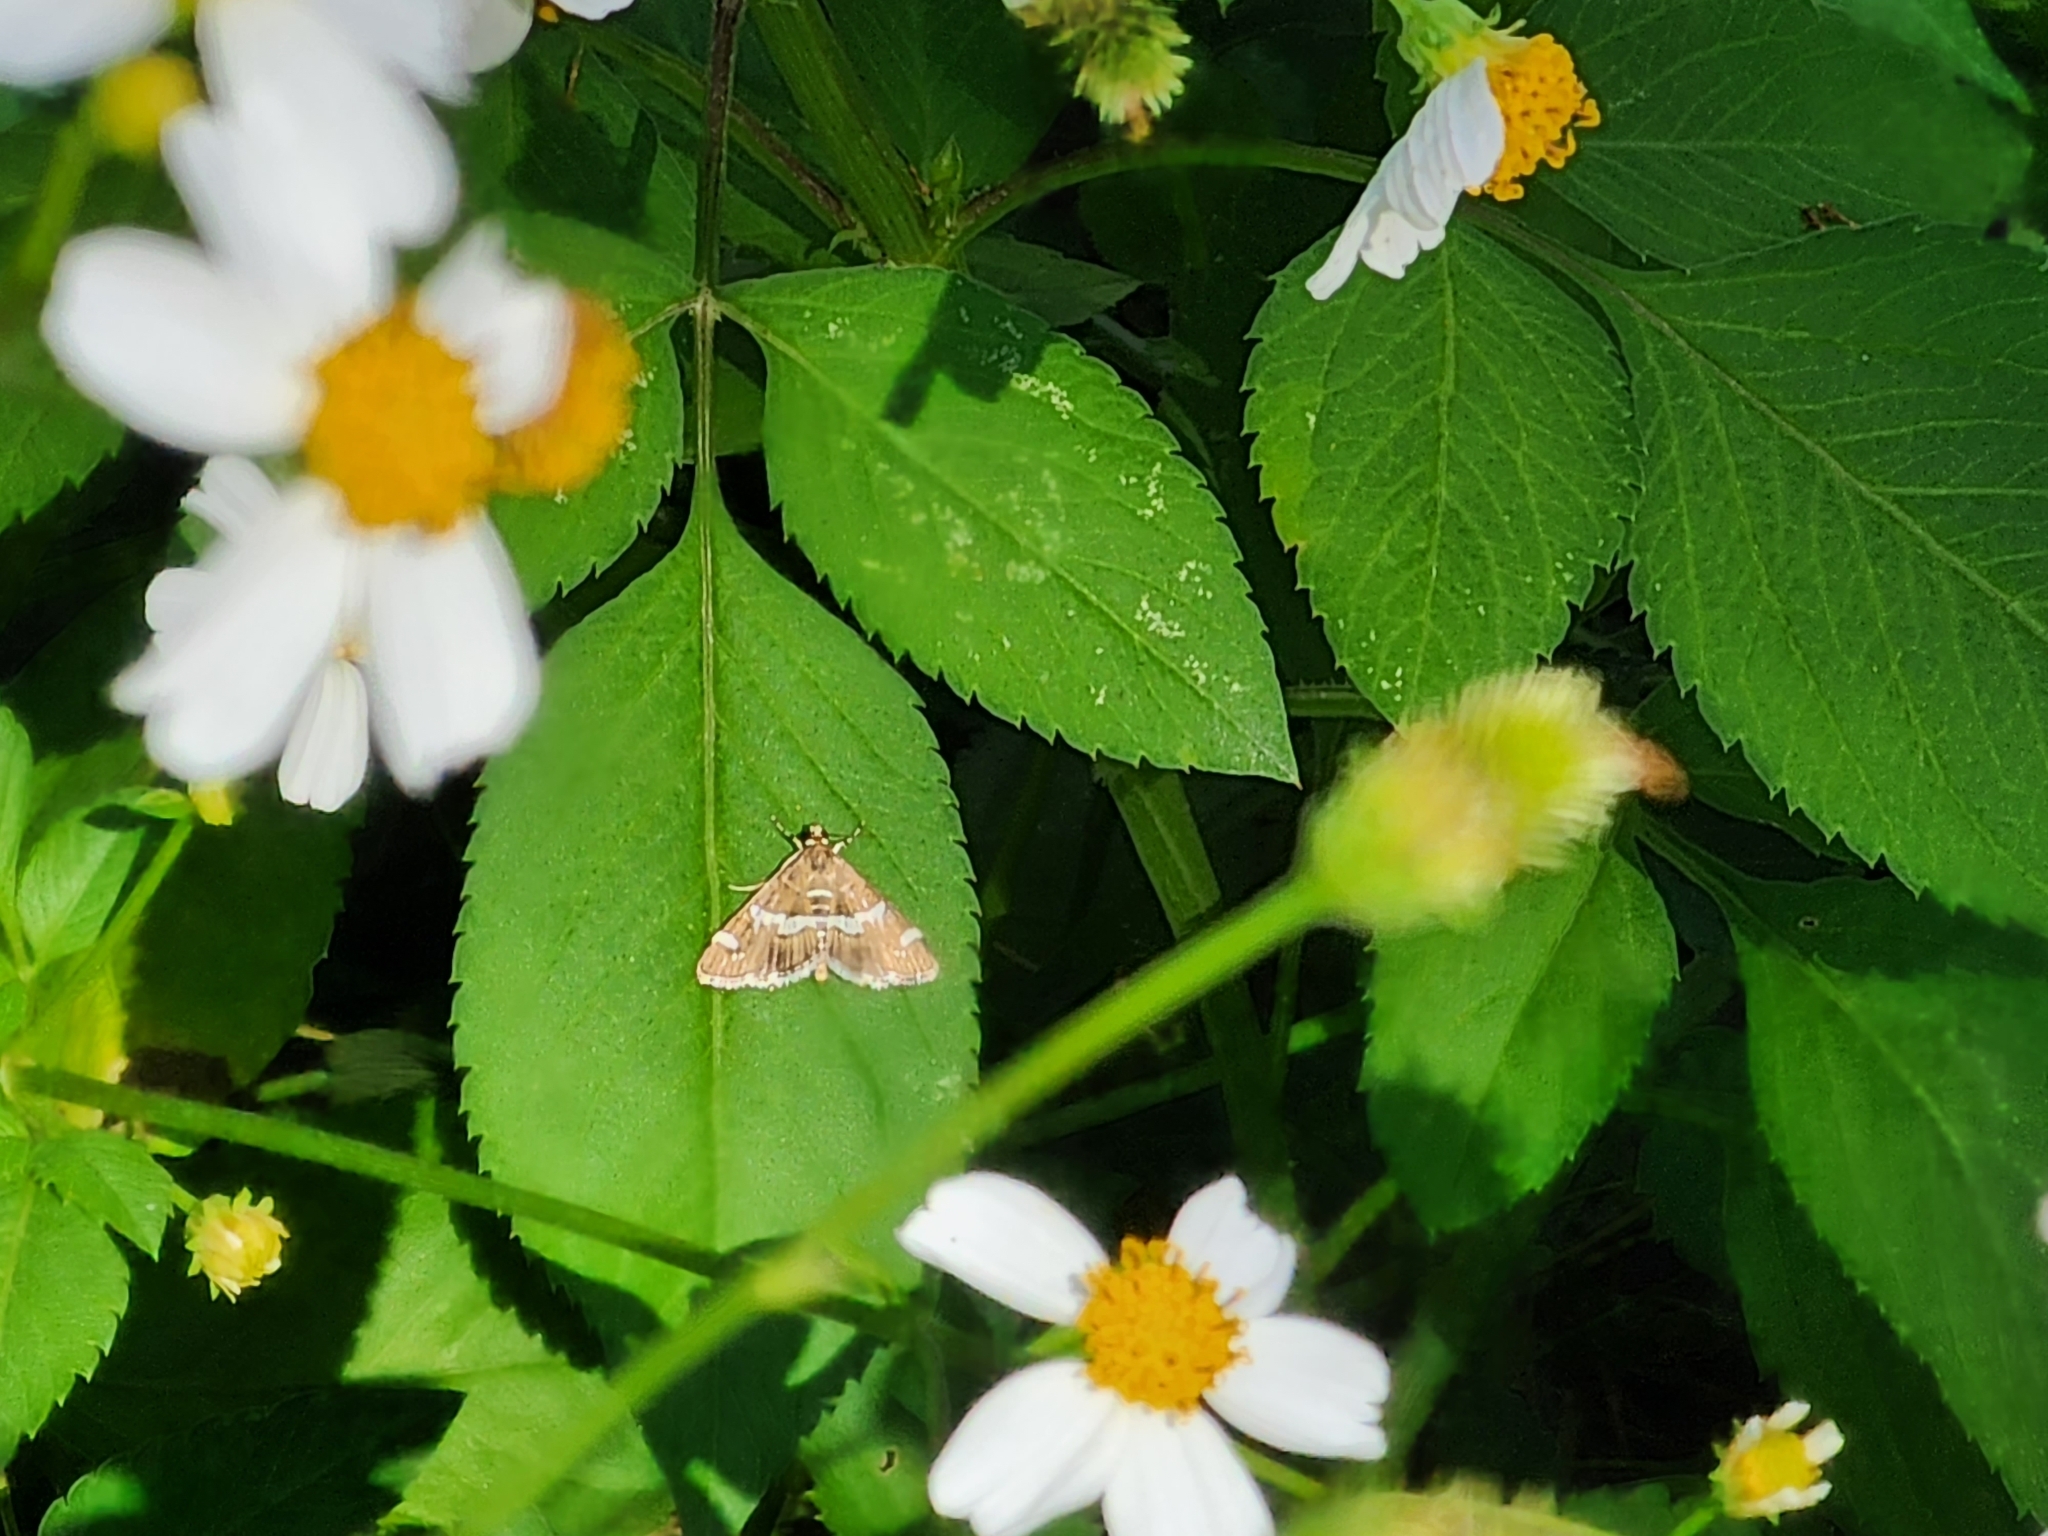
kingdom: Animalia
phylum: Arthropoda
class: Insecta
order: Lepidoptera
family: Crambidae
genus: Spoladea
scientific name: Spoladea recurvalis
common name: Beet webworm moth
